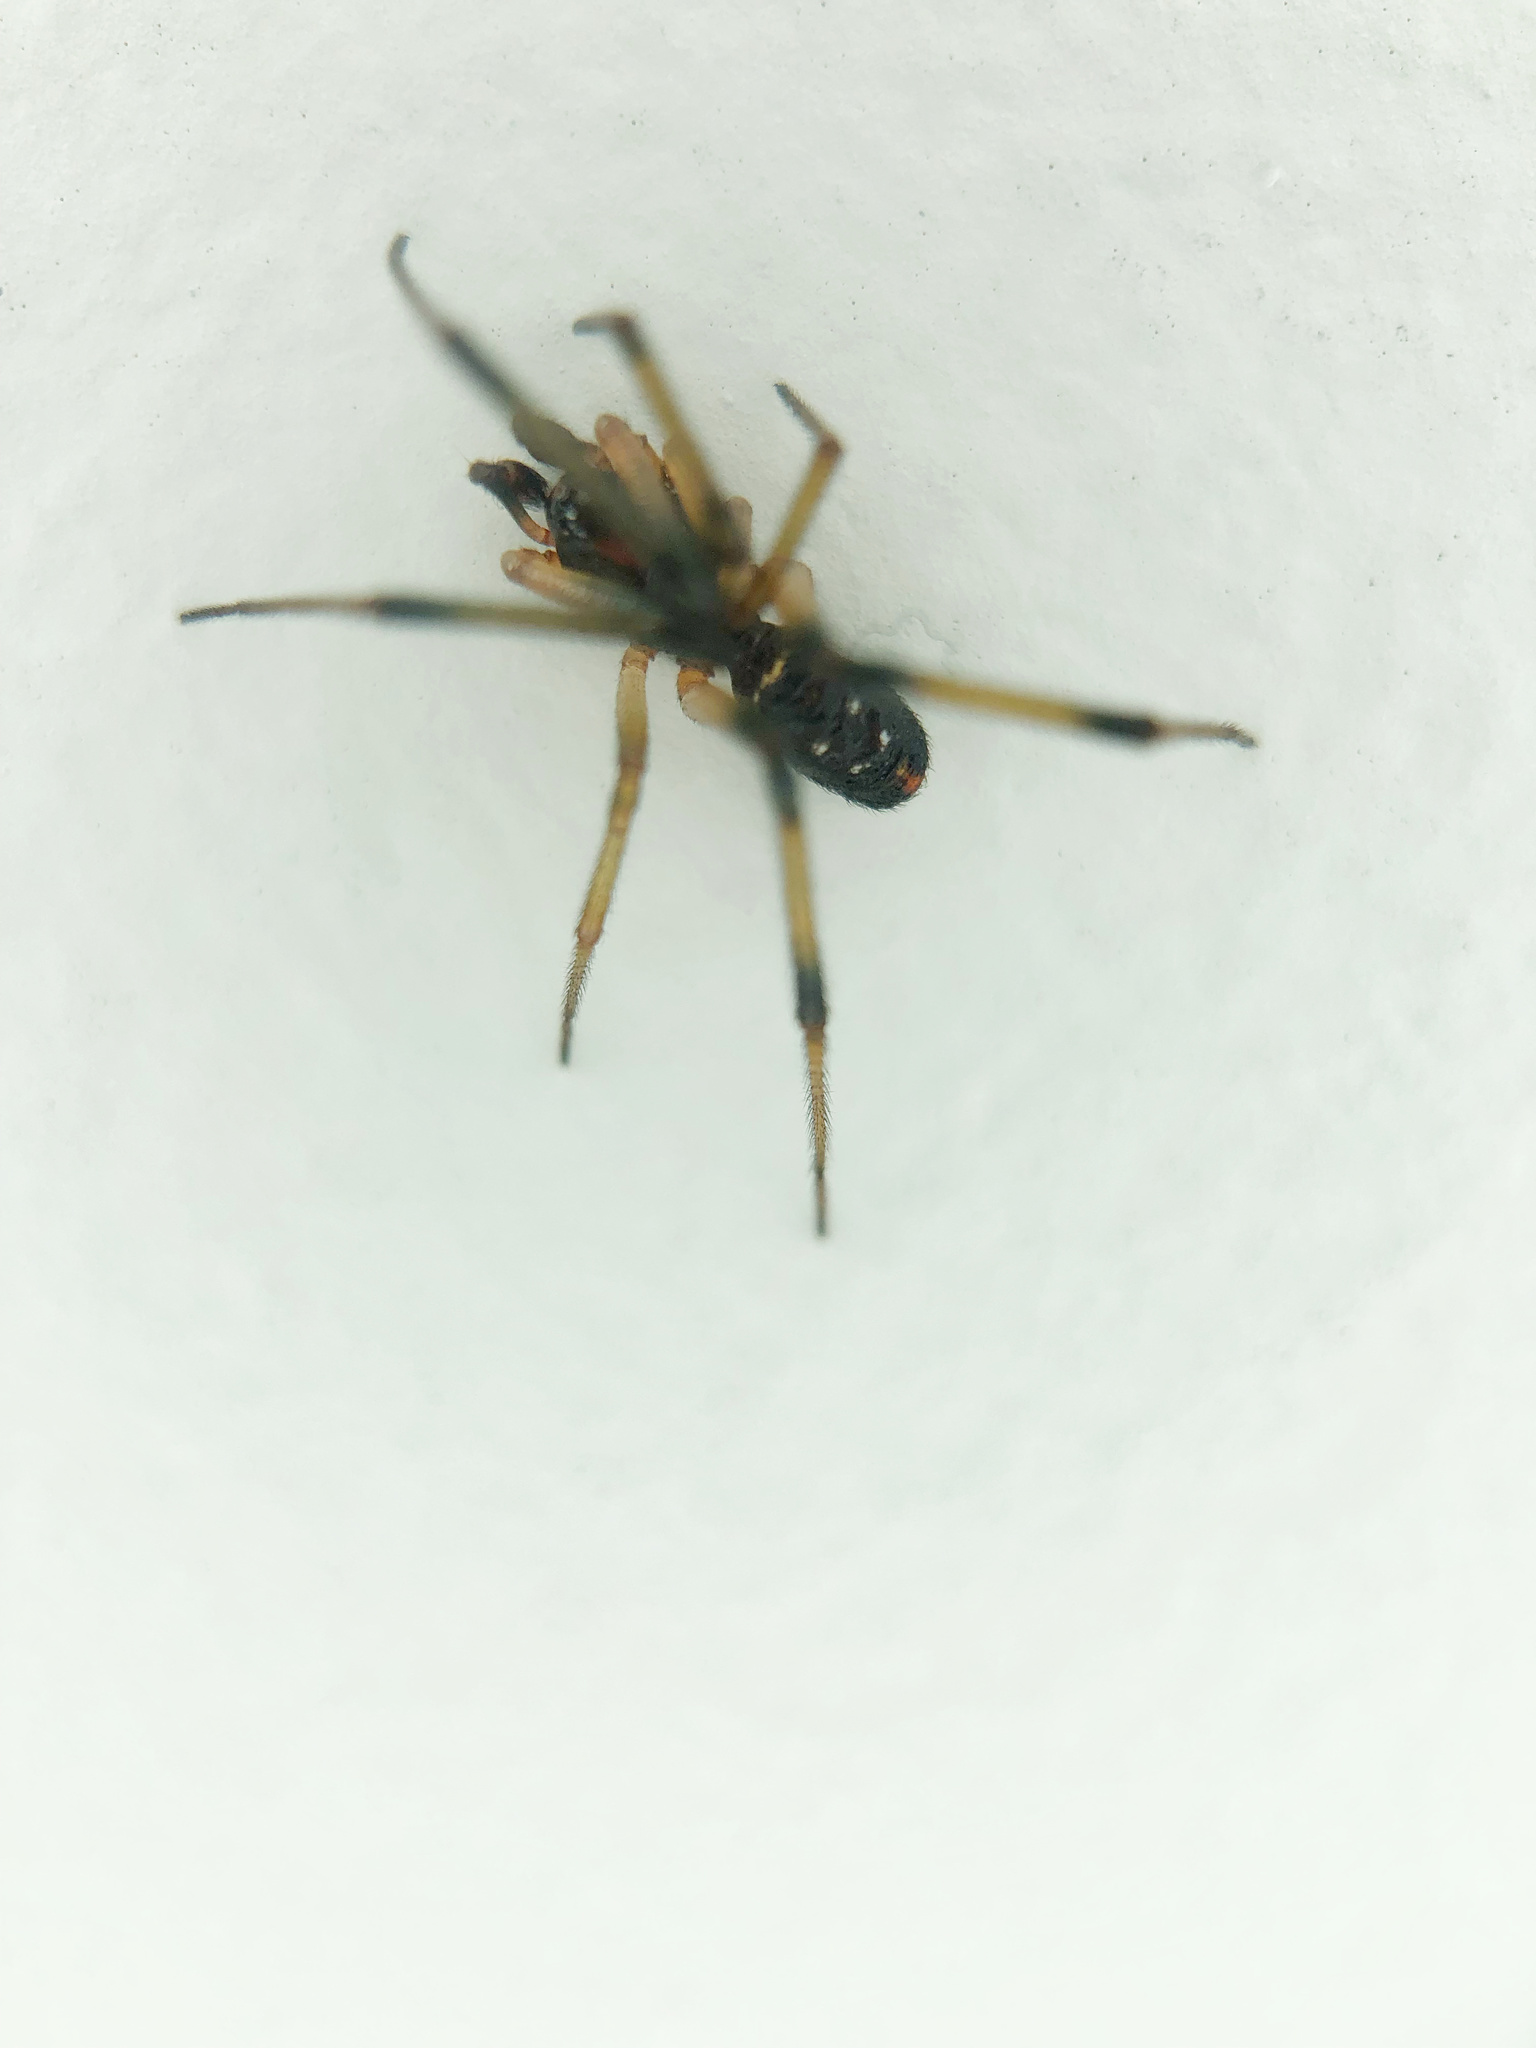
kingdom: Animalia
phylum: Arthropoda
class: Arachnida
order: Araneae
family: Theridiidae
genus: Steatoda
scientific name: Steatoda capensis
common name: Cobweb weaver
